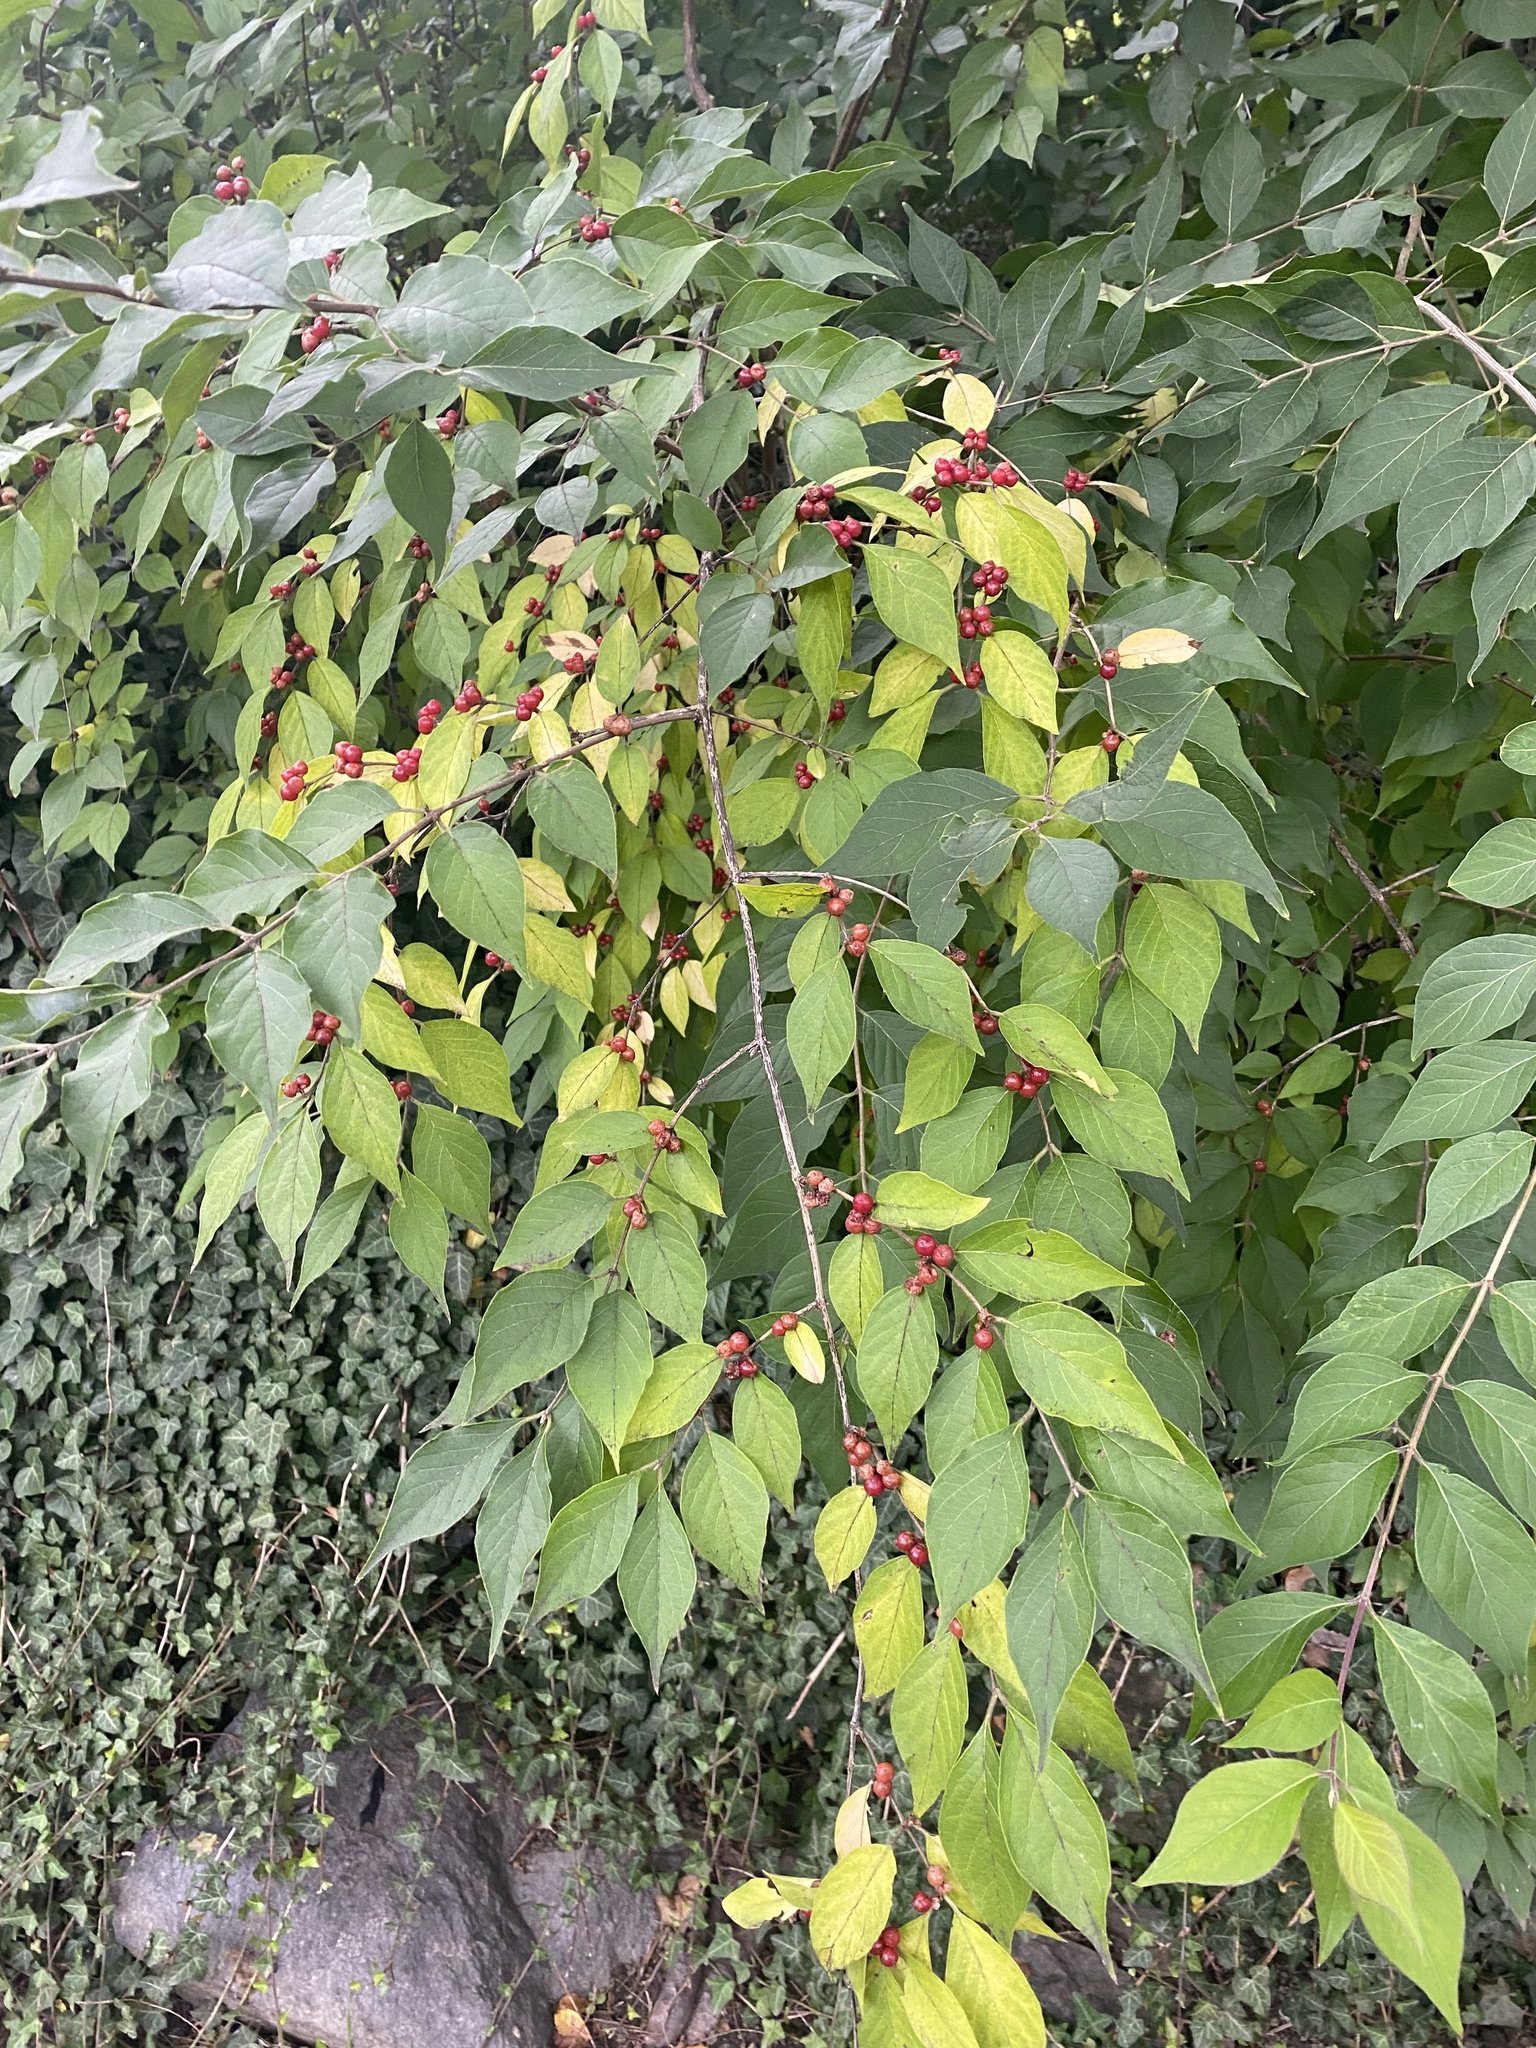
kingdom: Plantae
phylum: Tracheophyta
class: Magnoliopsida
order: Dipsacales
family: Caprifoliaceae
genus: Lonicera
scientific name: Lonicera maackii
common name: Amur honeysuckle
